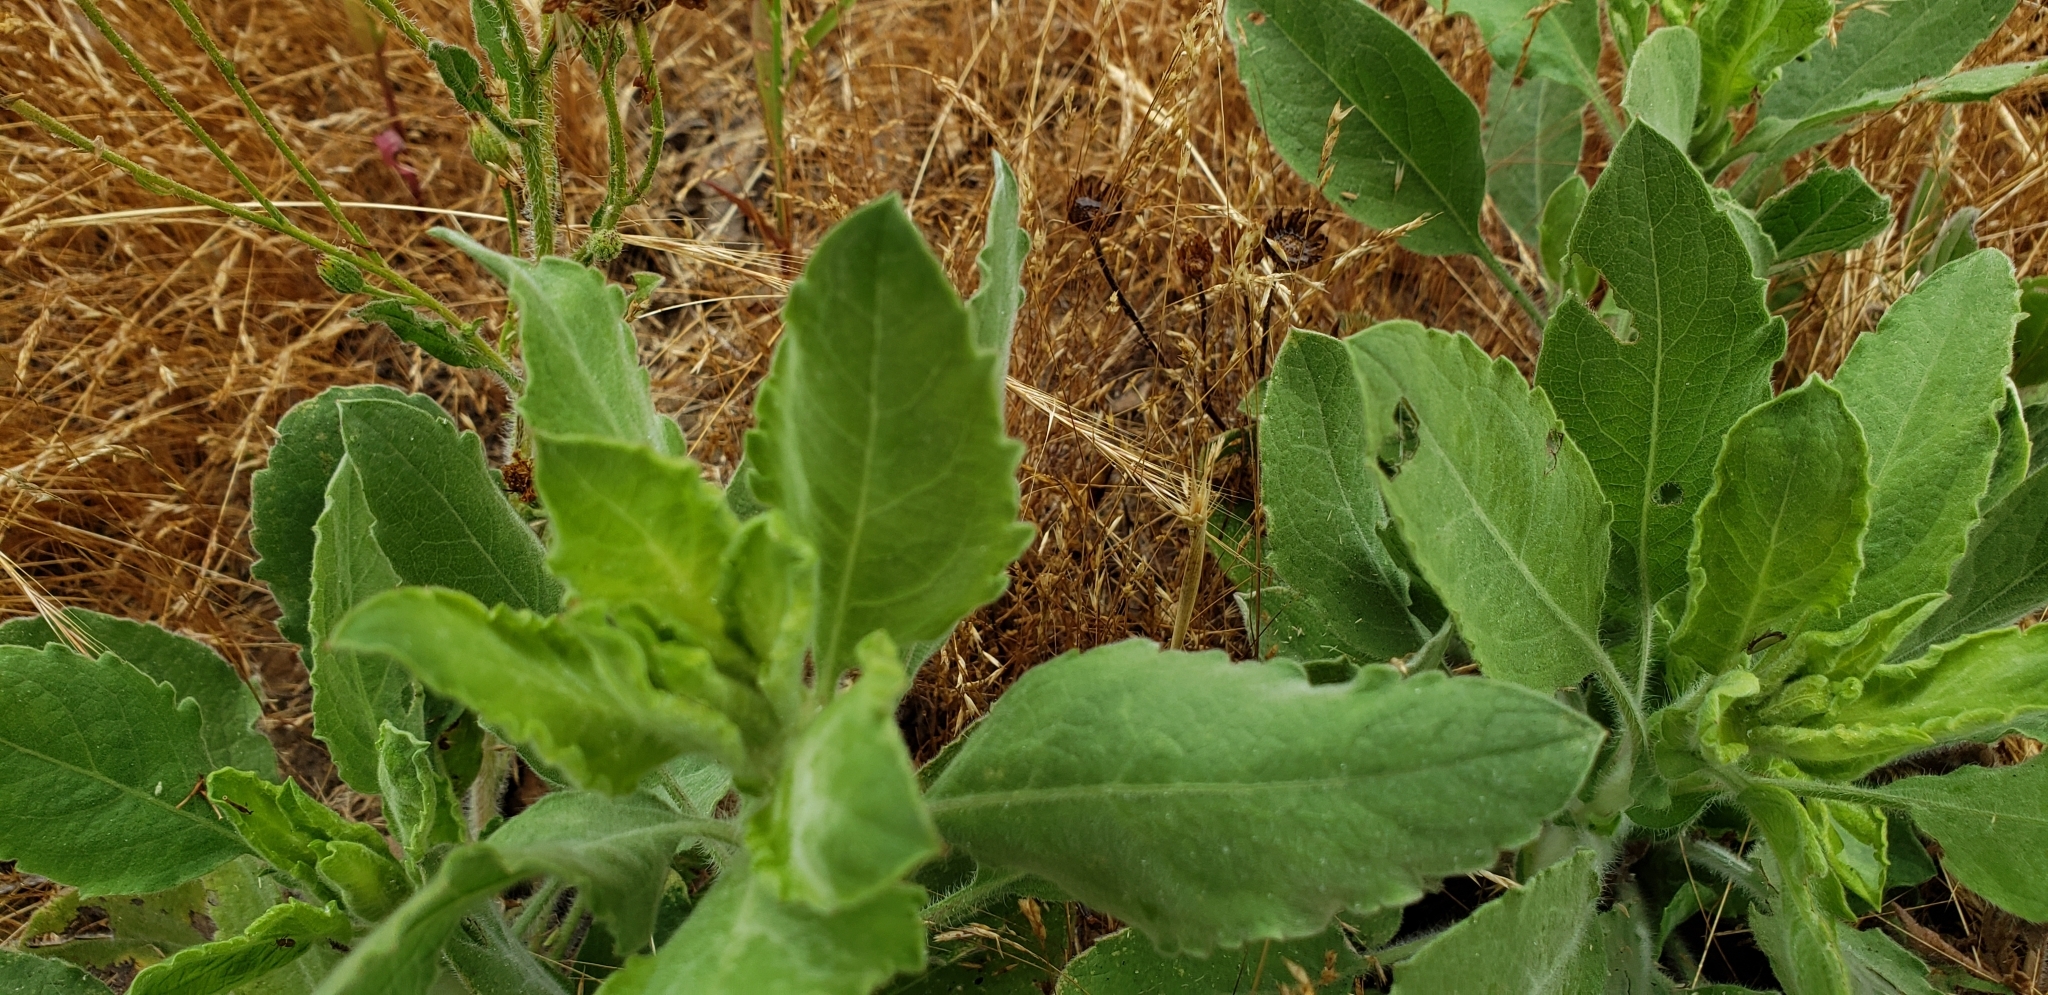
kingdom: Plantae
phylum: Tracheophyta
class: Magnoliopsida
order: Asterales
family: Asteraceae
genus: Heterotheca
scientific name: Heterotheca grandiflora
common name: Telegraphweed
